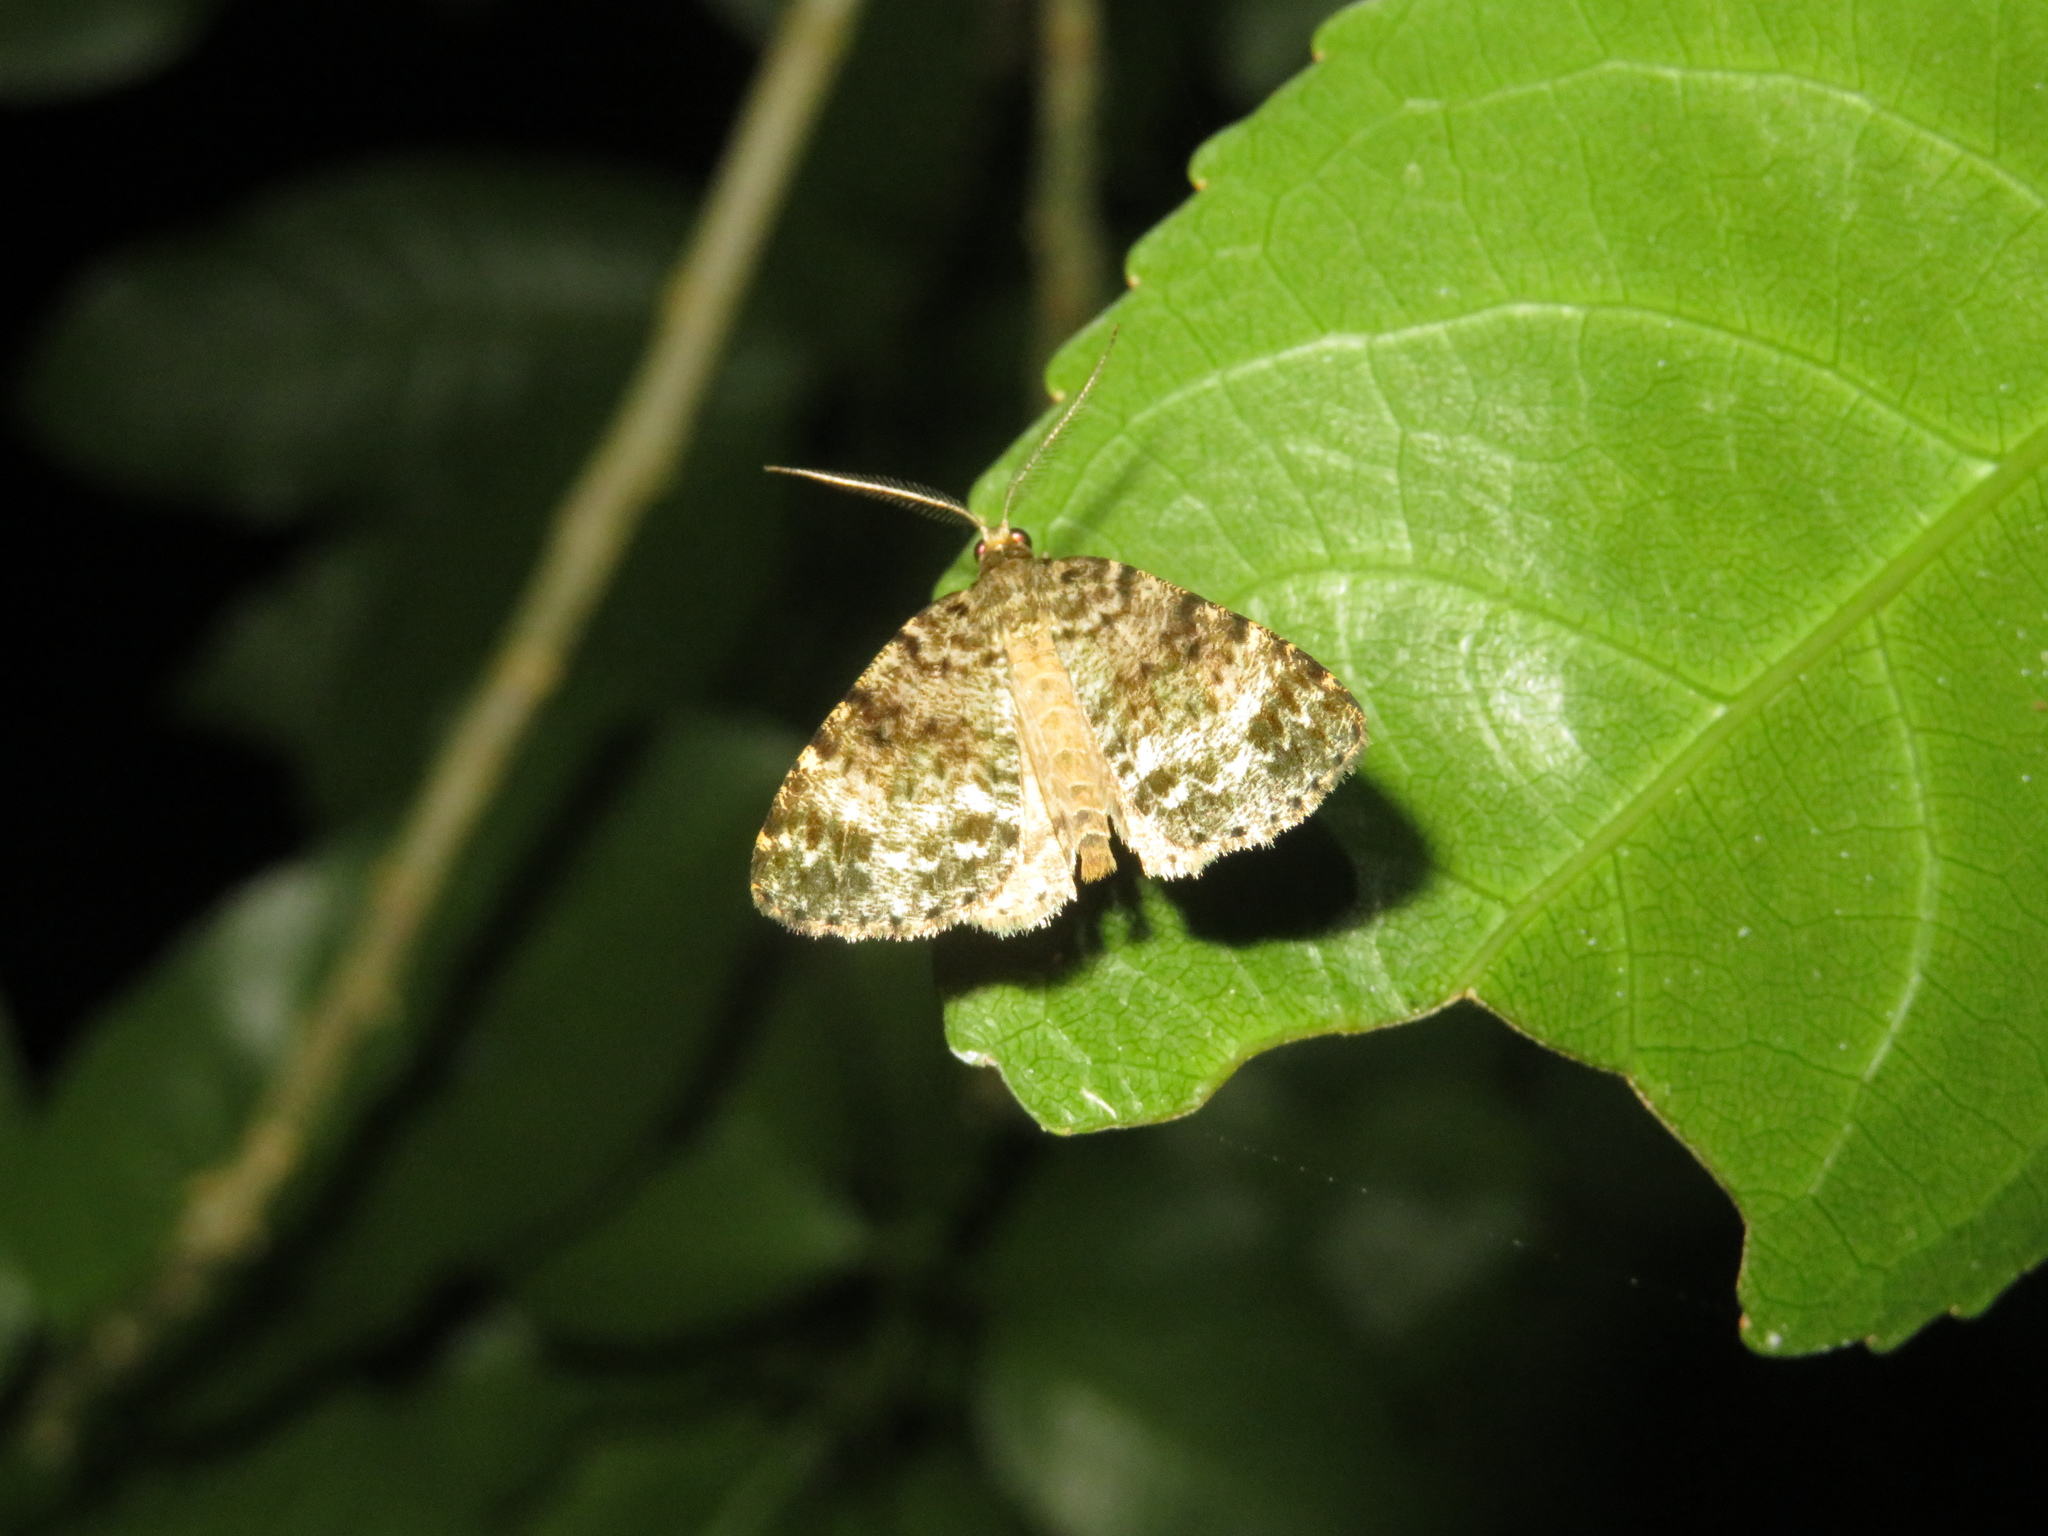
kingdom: Animalia
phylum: Arthropoda
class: Insecta
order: Lepidoptera
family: Geometridae
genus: Pseudocoremia
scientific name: Pseudocoremia indistincta
